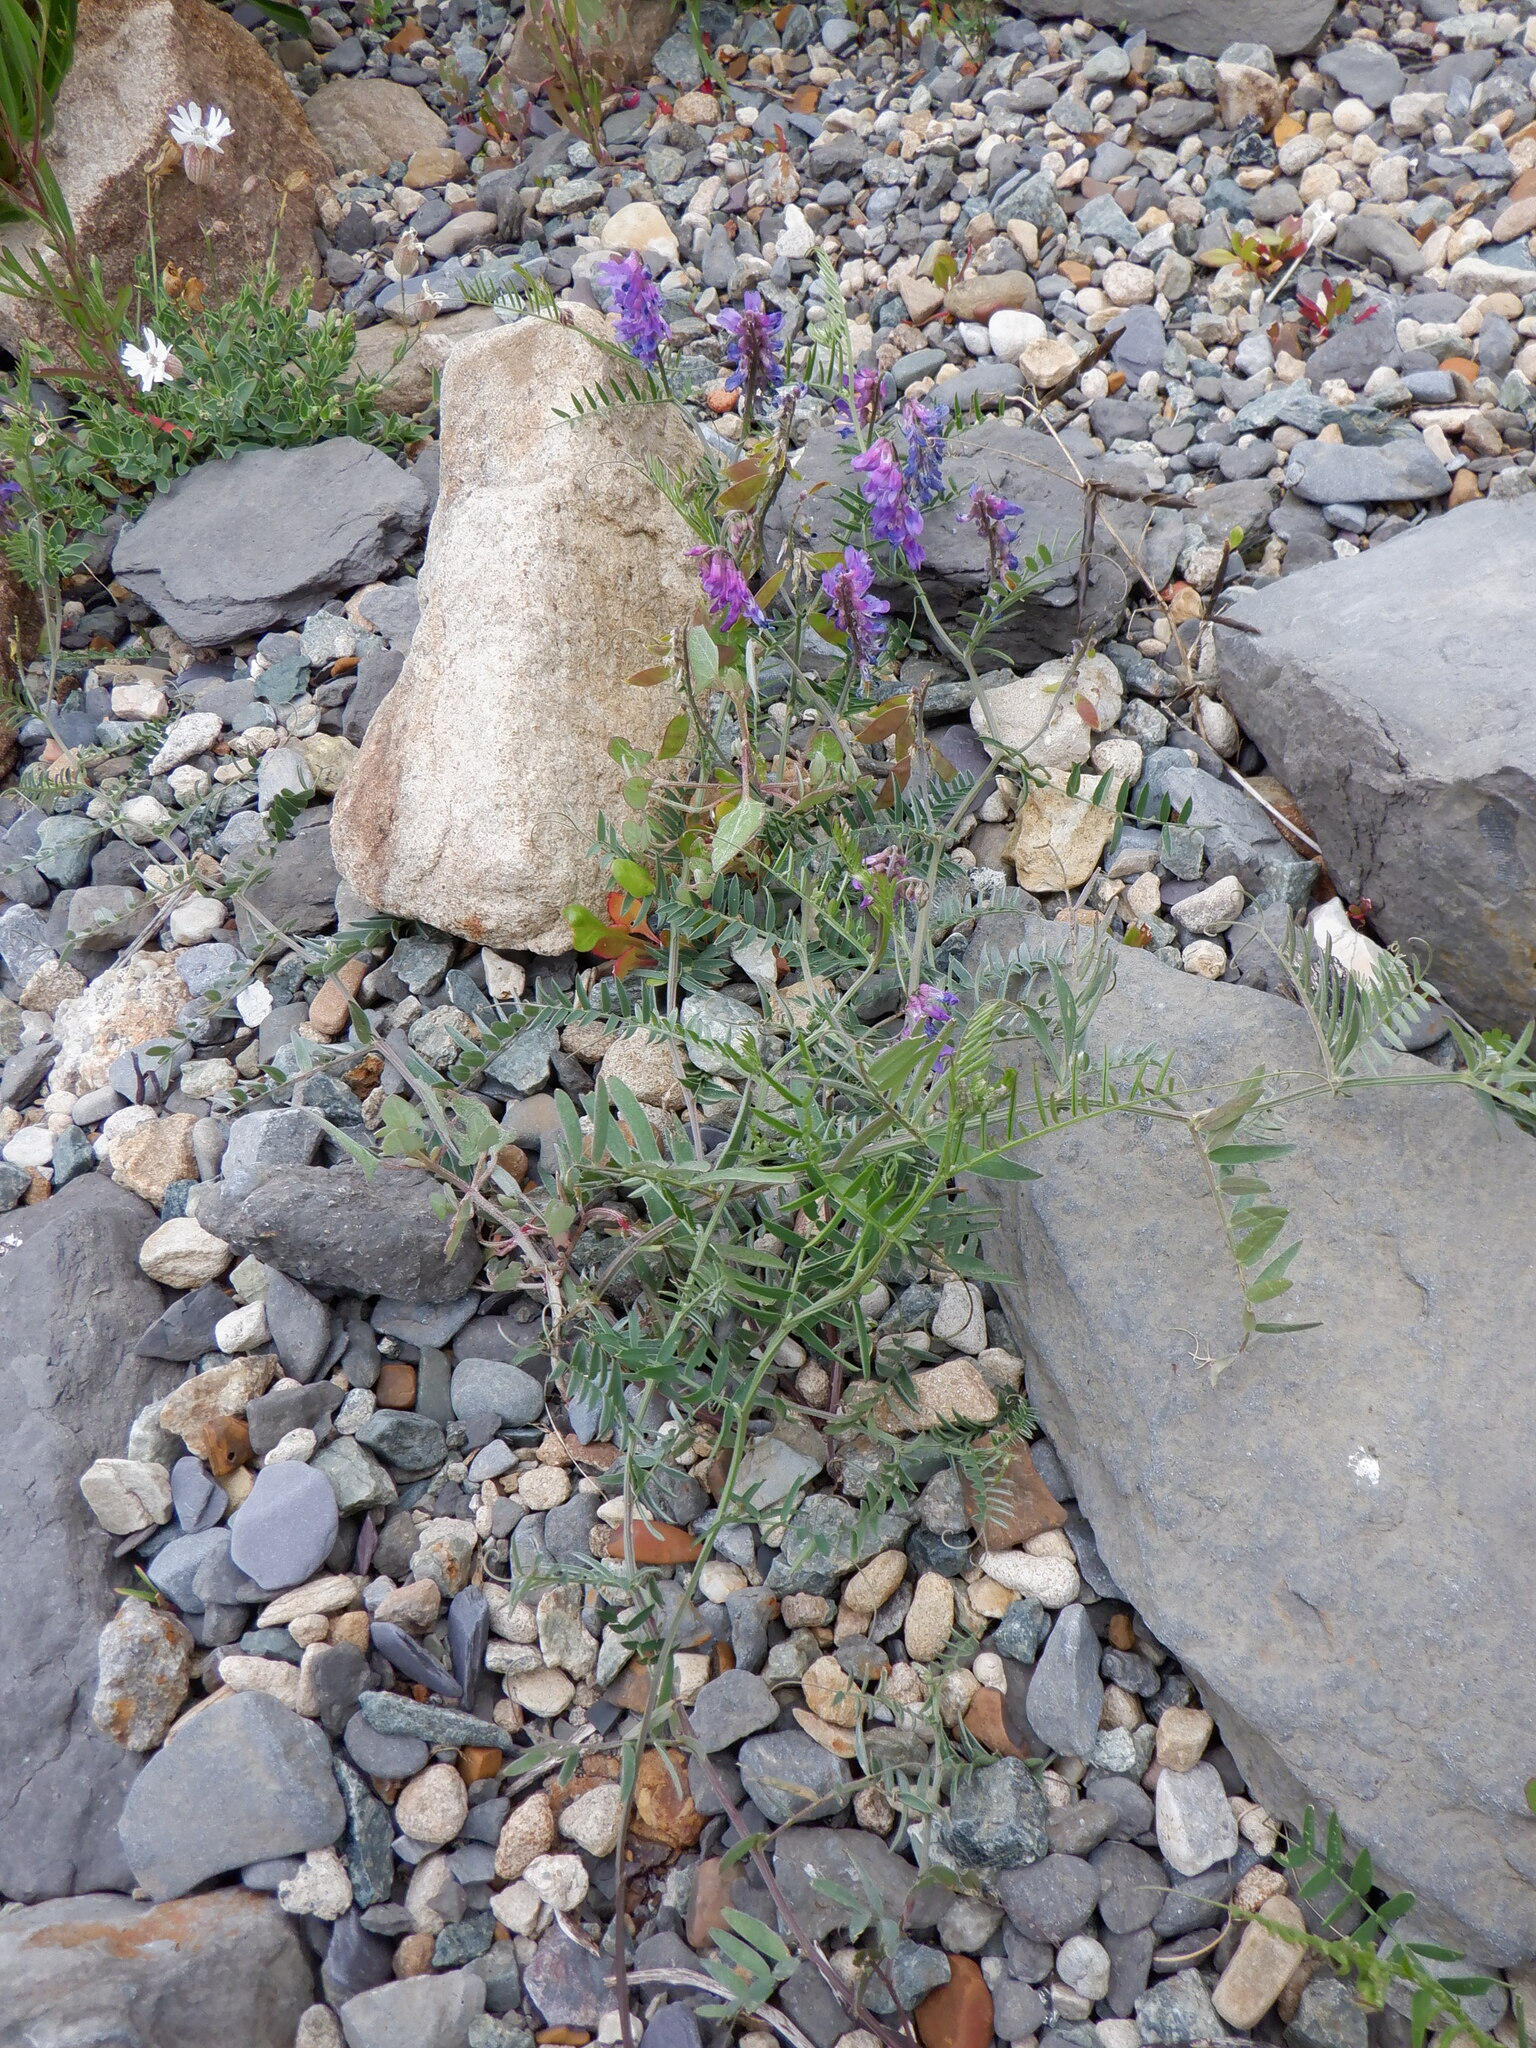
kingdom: Plantae
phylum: Tracheophyta
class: Magnoliopsida
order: Fabales
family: Fabaceae
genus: Vicia
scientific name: Vicia cracca
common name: Bird vetch
